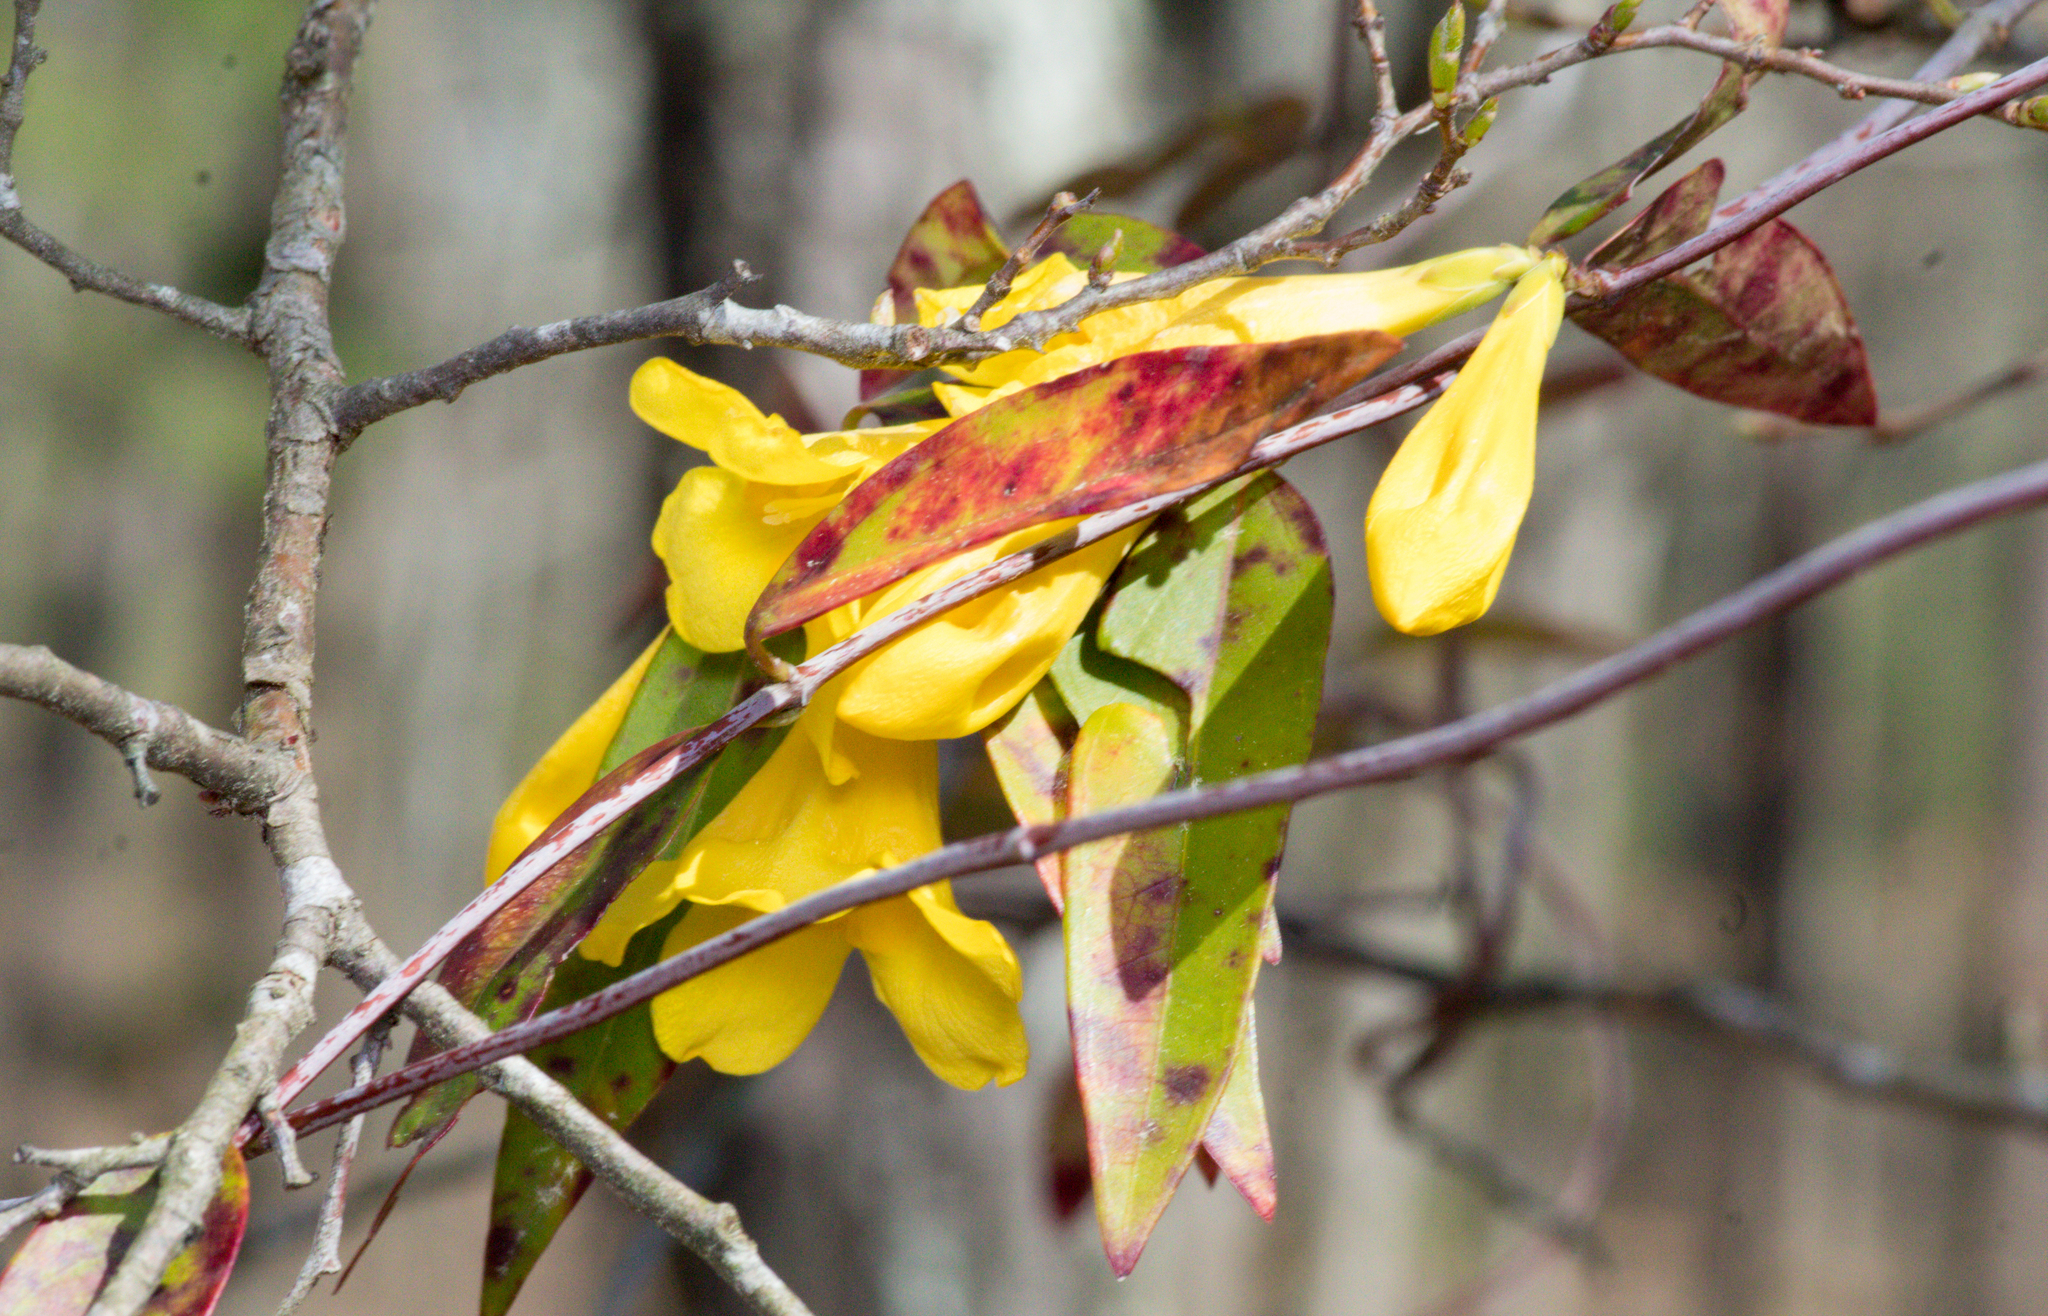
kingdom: Plantae
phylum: Tracheophyta
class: Magnoliopsida
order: Gentianales
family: Gelsemiaceae
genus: Gelsemium
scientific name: Gelsemium sempervirens
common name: Carolina-jasmine
